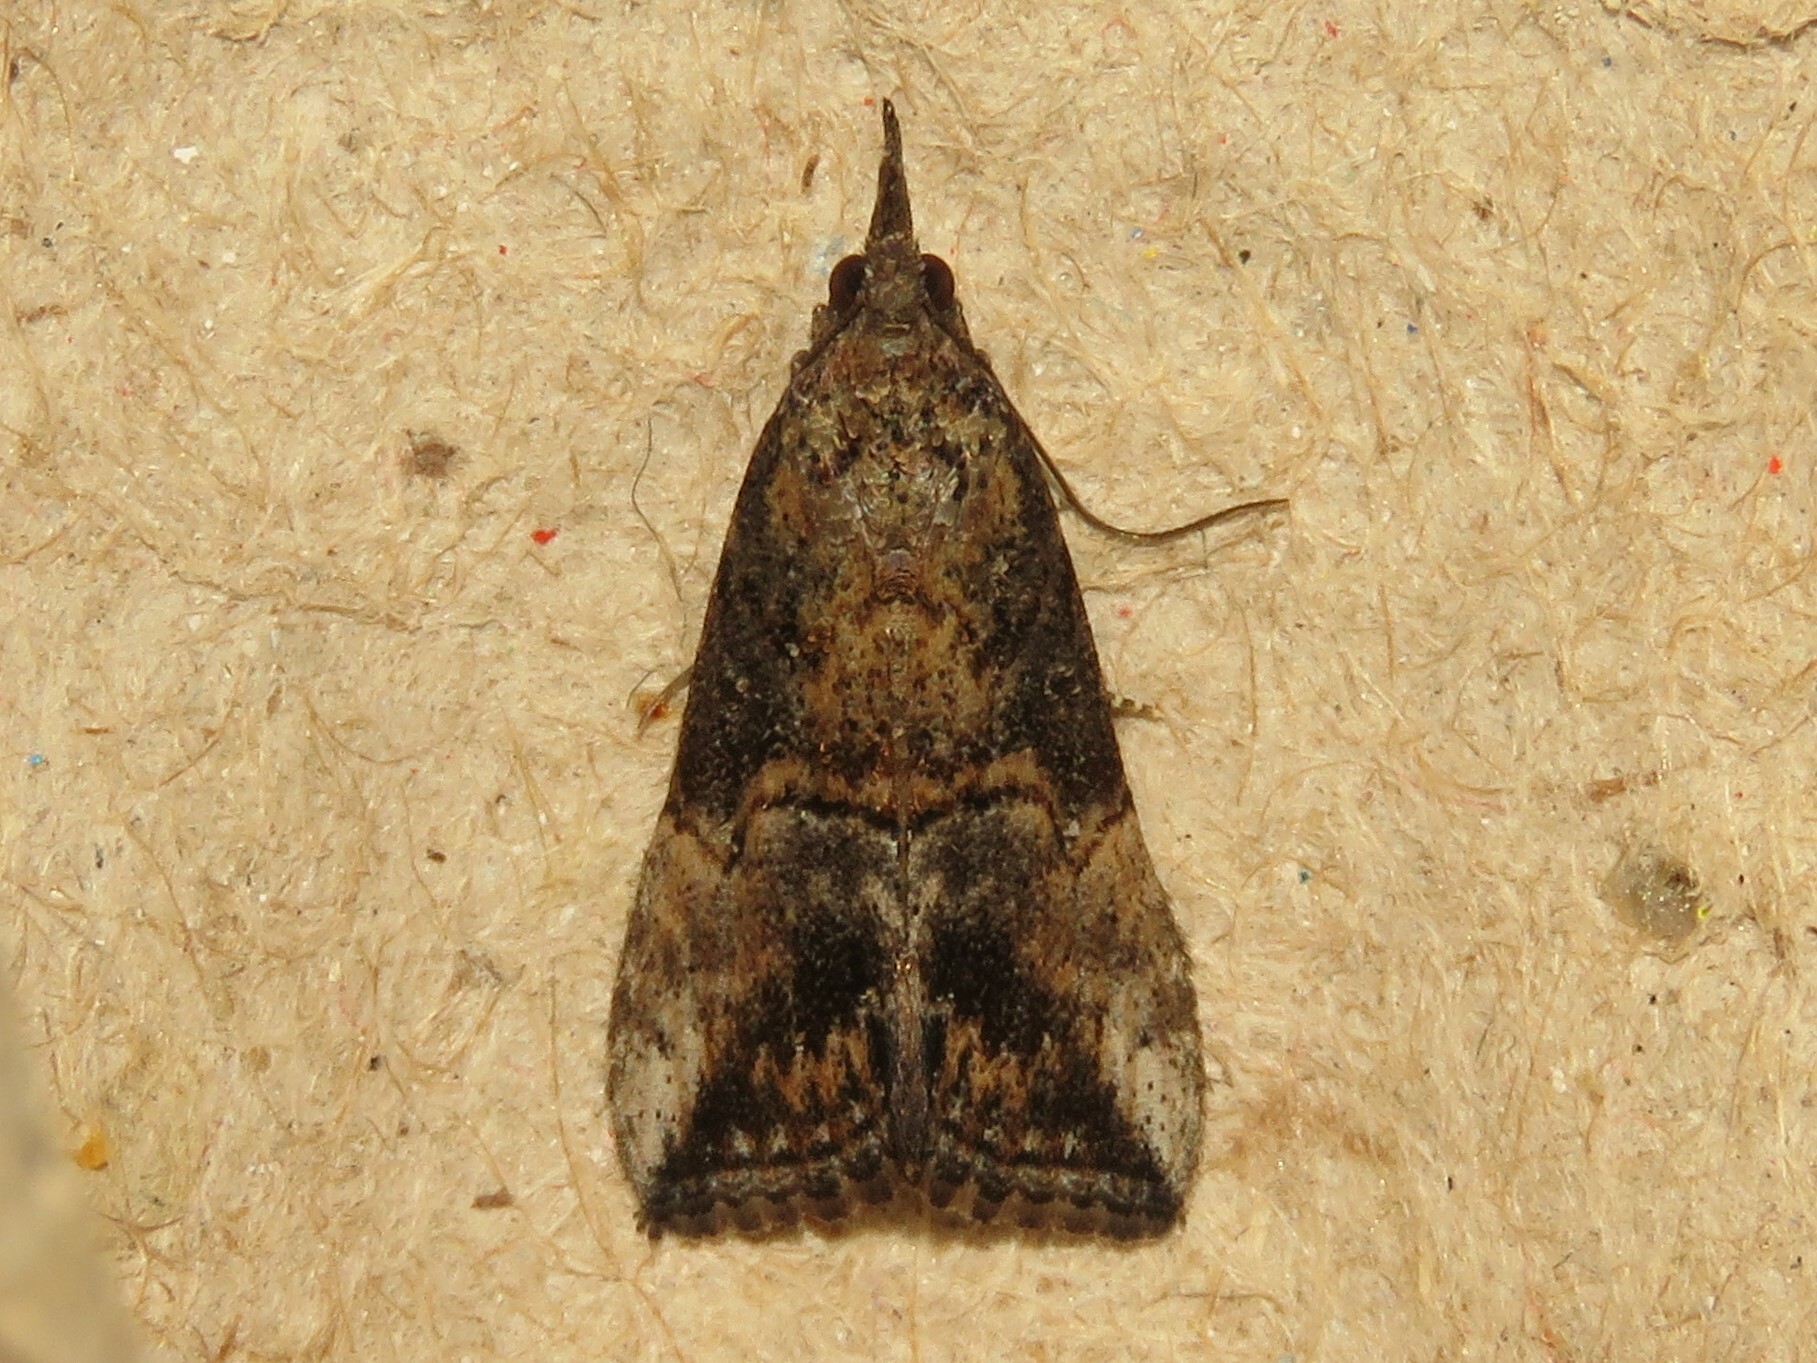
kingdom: Animalia
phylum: Arthropoda
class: Insecta
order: Lepidoptera
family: Erebidae
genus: Hypena
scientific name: Hypena scabra
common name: Green cloverworm
